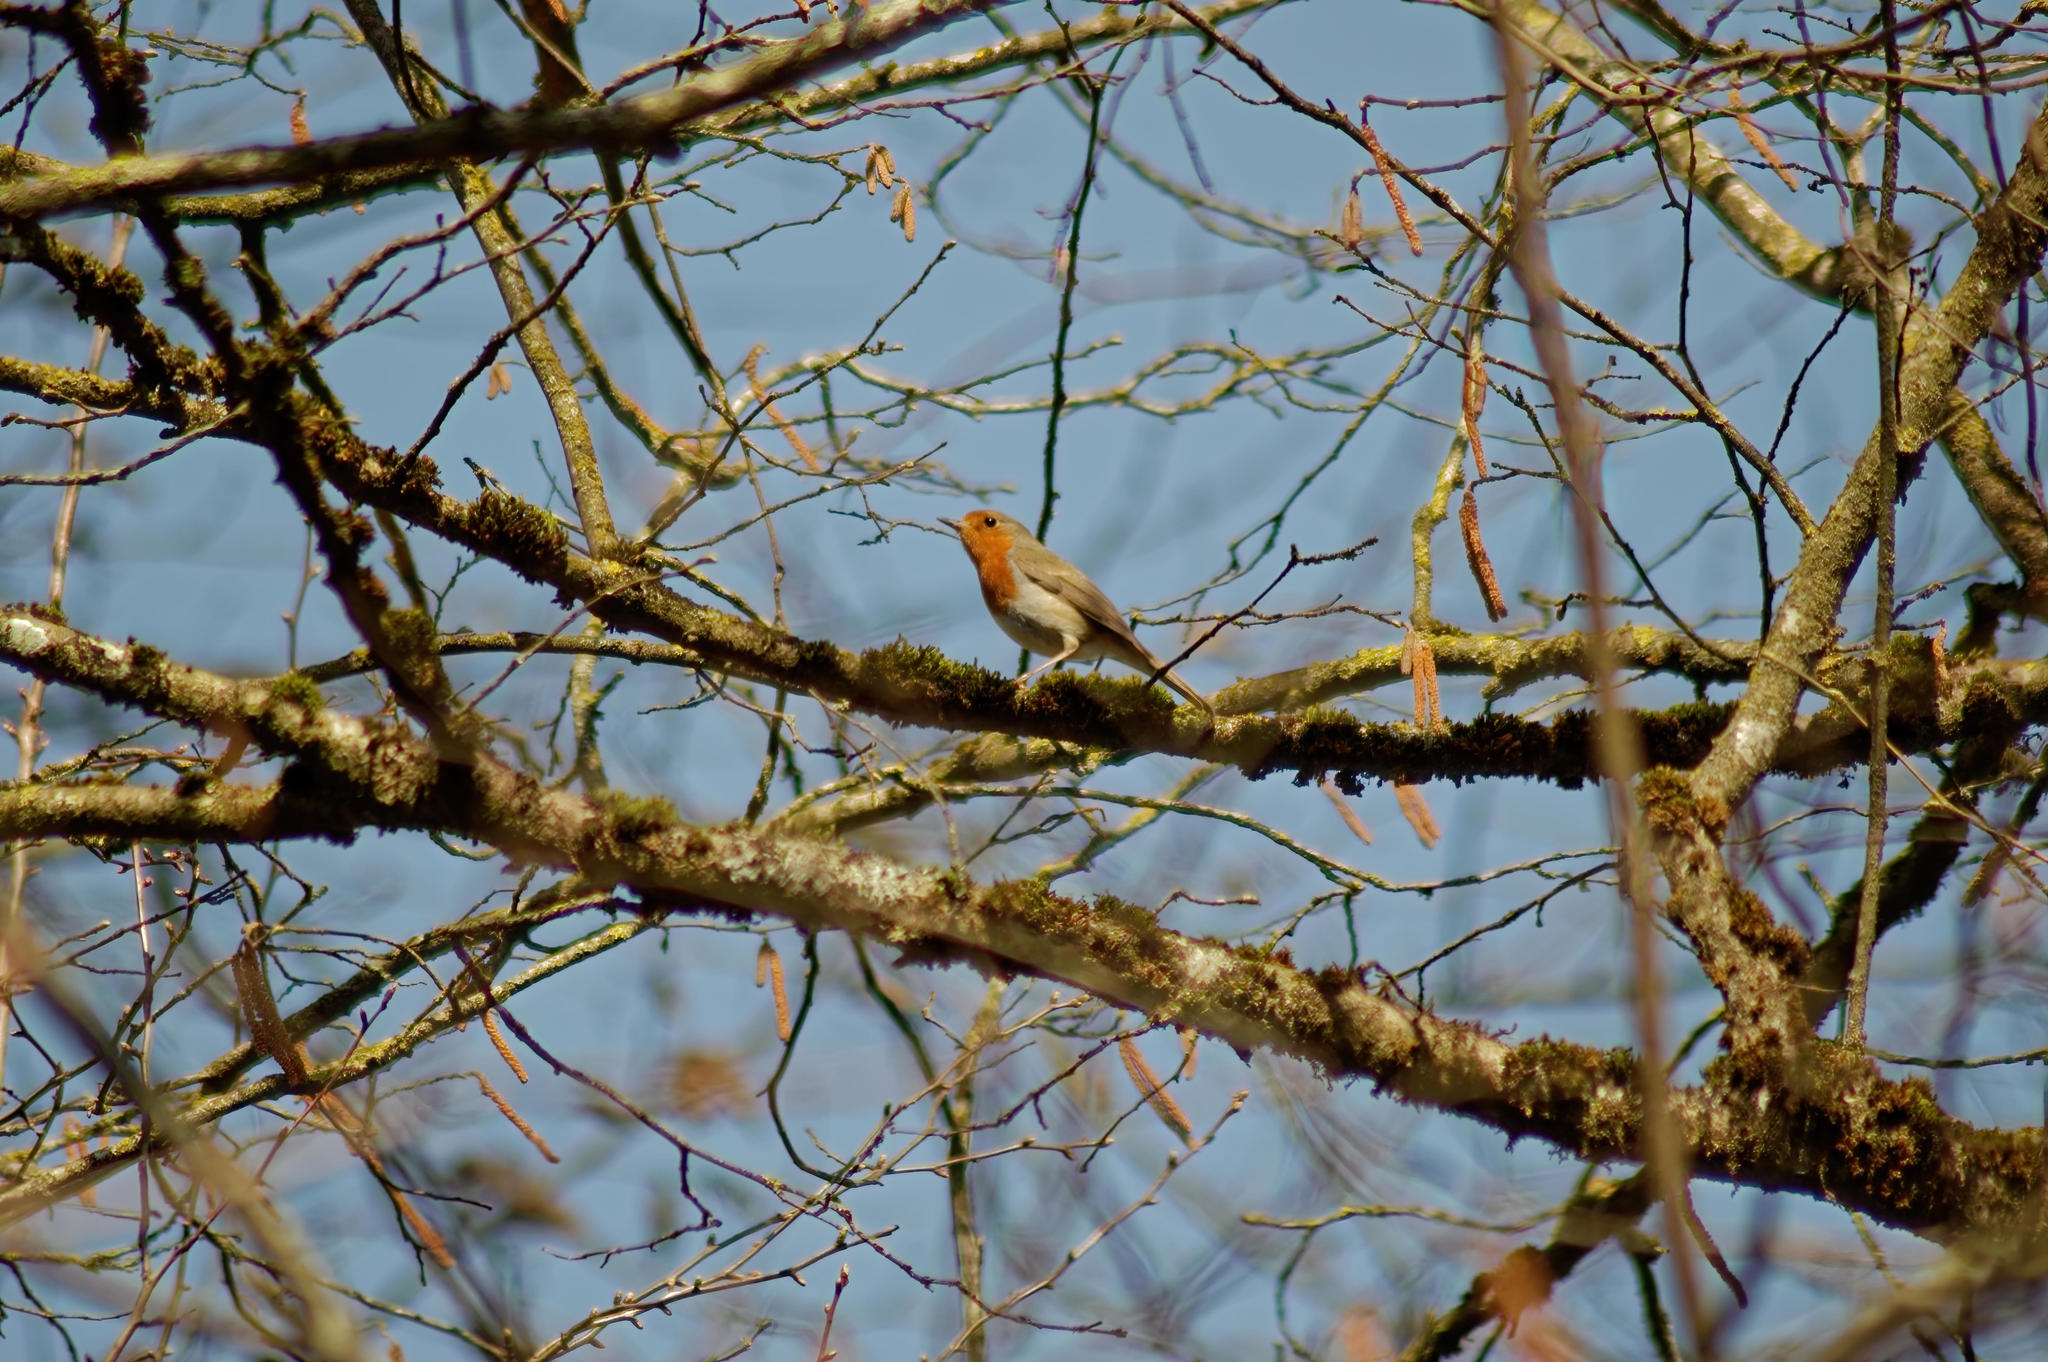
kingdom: Animalia
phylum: Chordata
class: Aves
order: Passeriformes
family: Muscicapidae
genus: Erithacus
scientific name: Erithacus rubecula
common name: European robin
